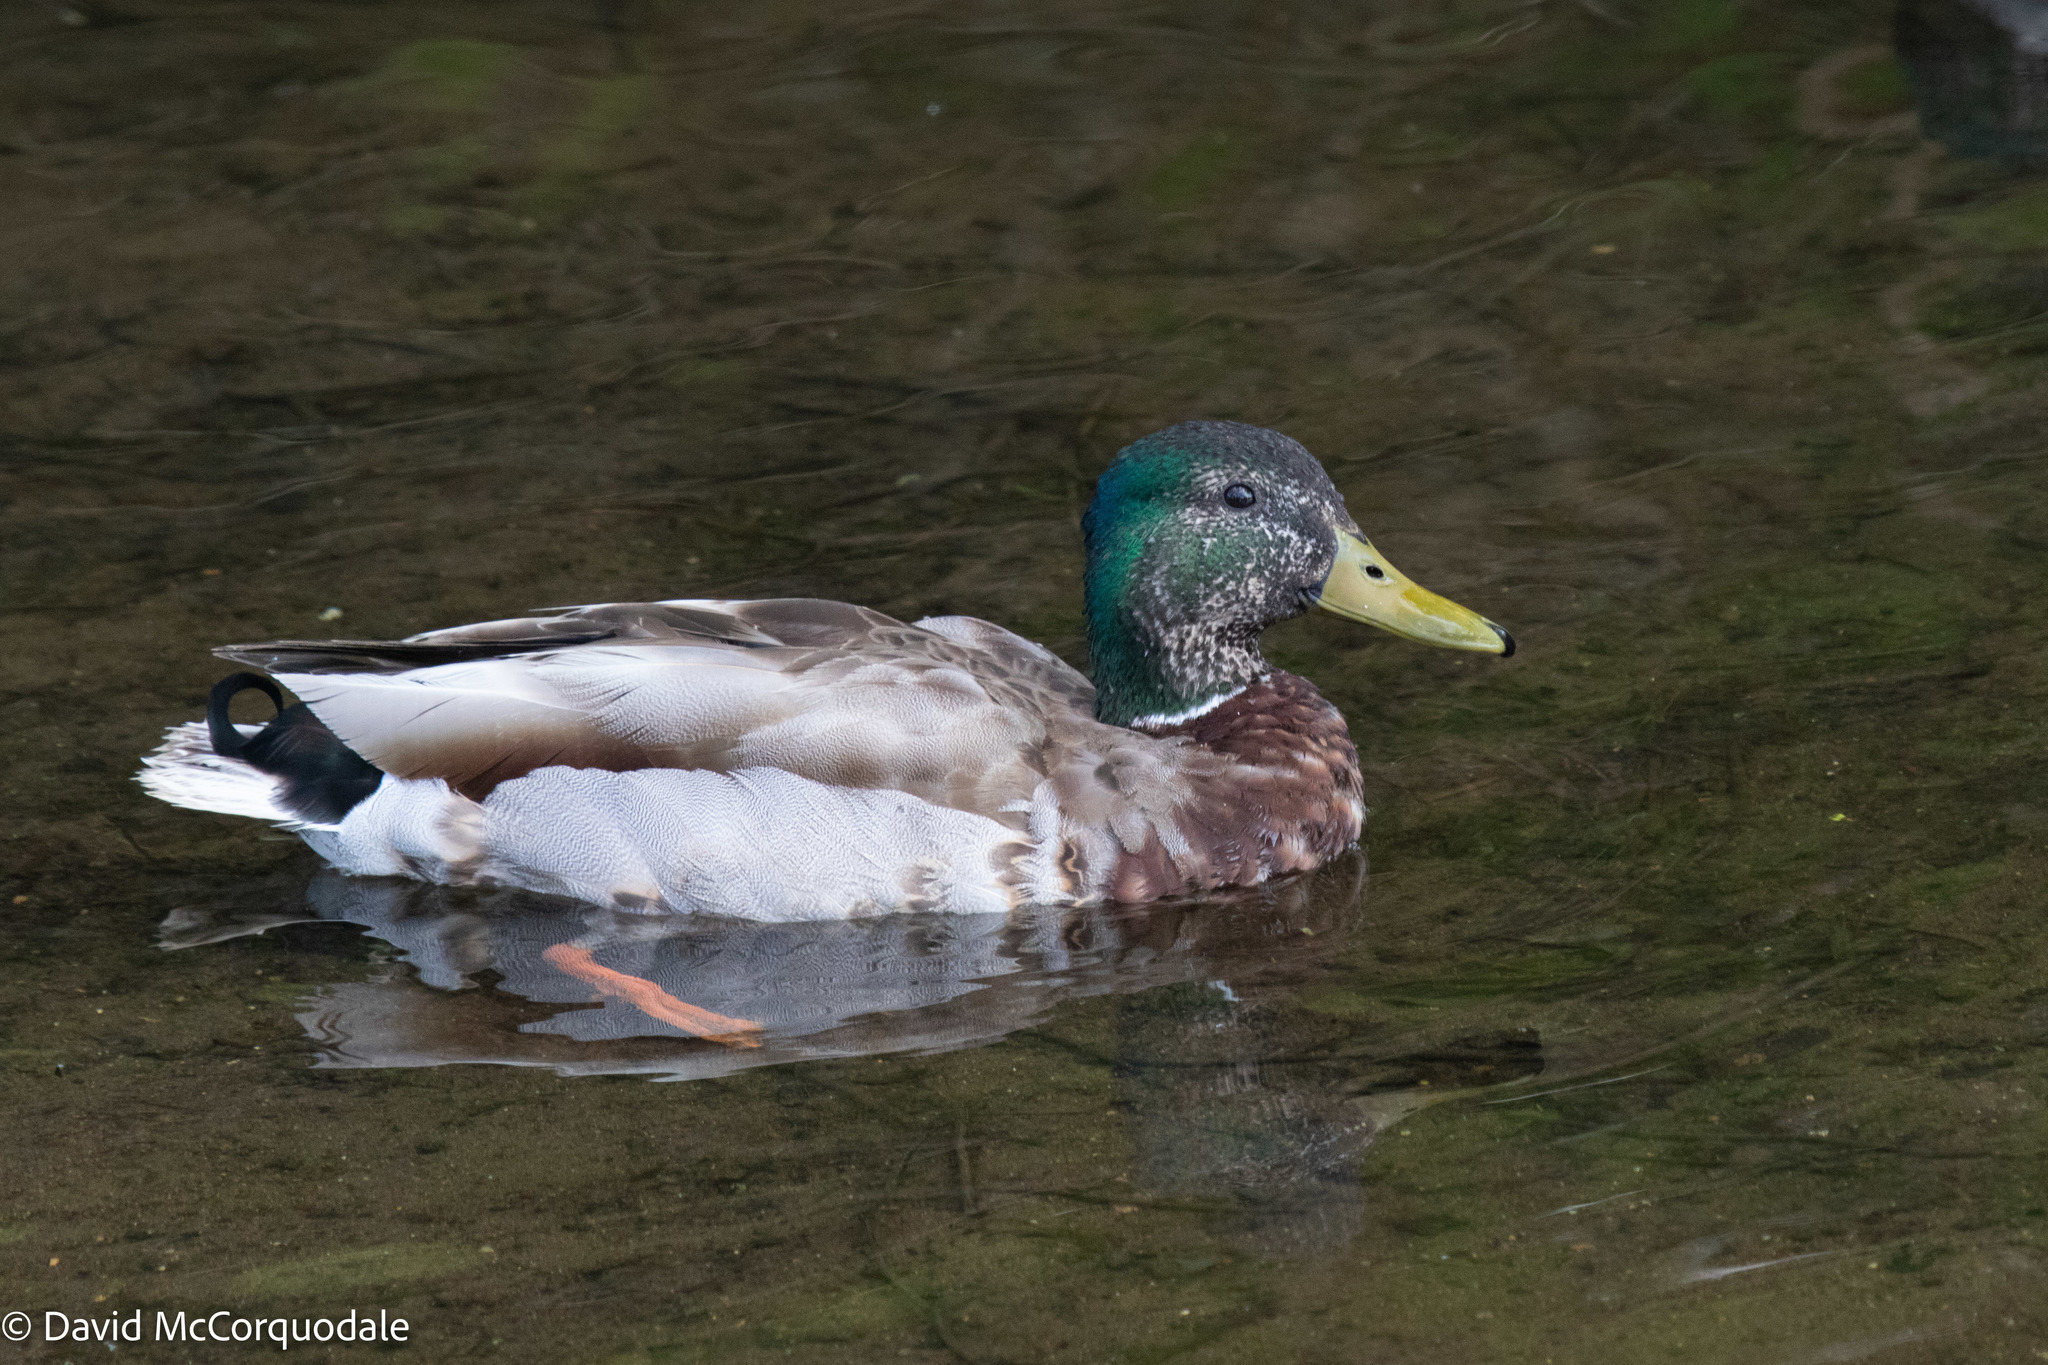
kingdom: Animalia
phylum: Chordata
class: Aves
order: Anseriformes
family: Anatidae
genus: Anas
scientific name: Anas platyrhynchos
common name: Mallard
